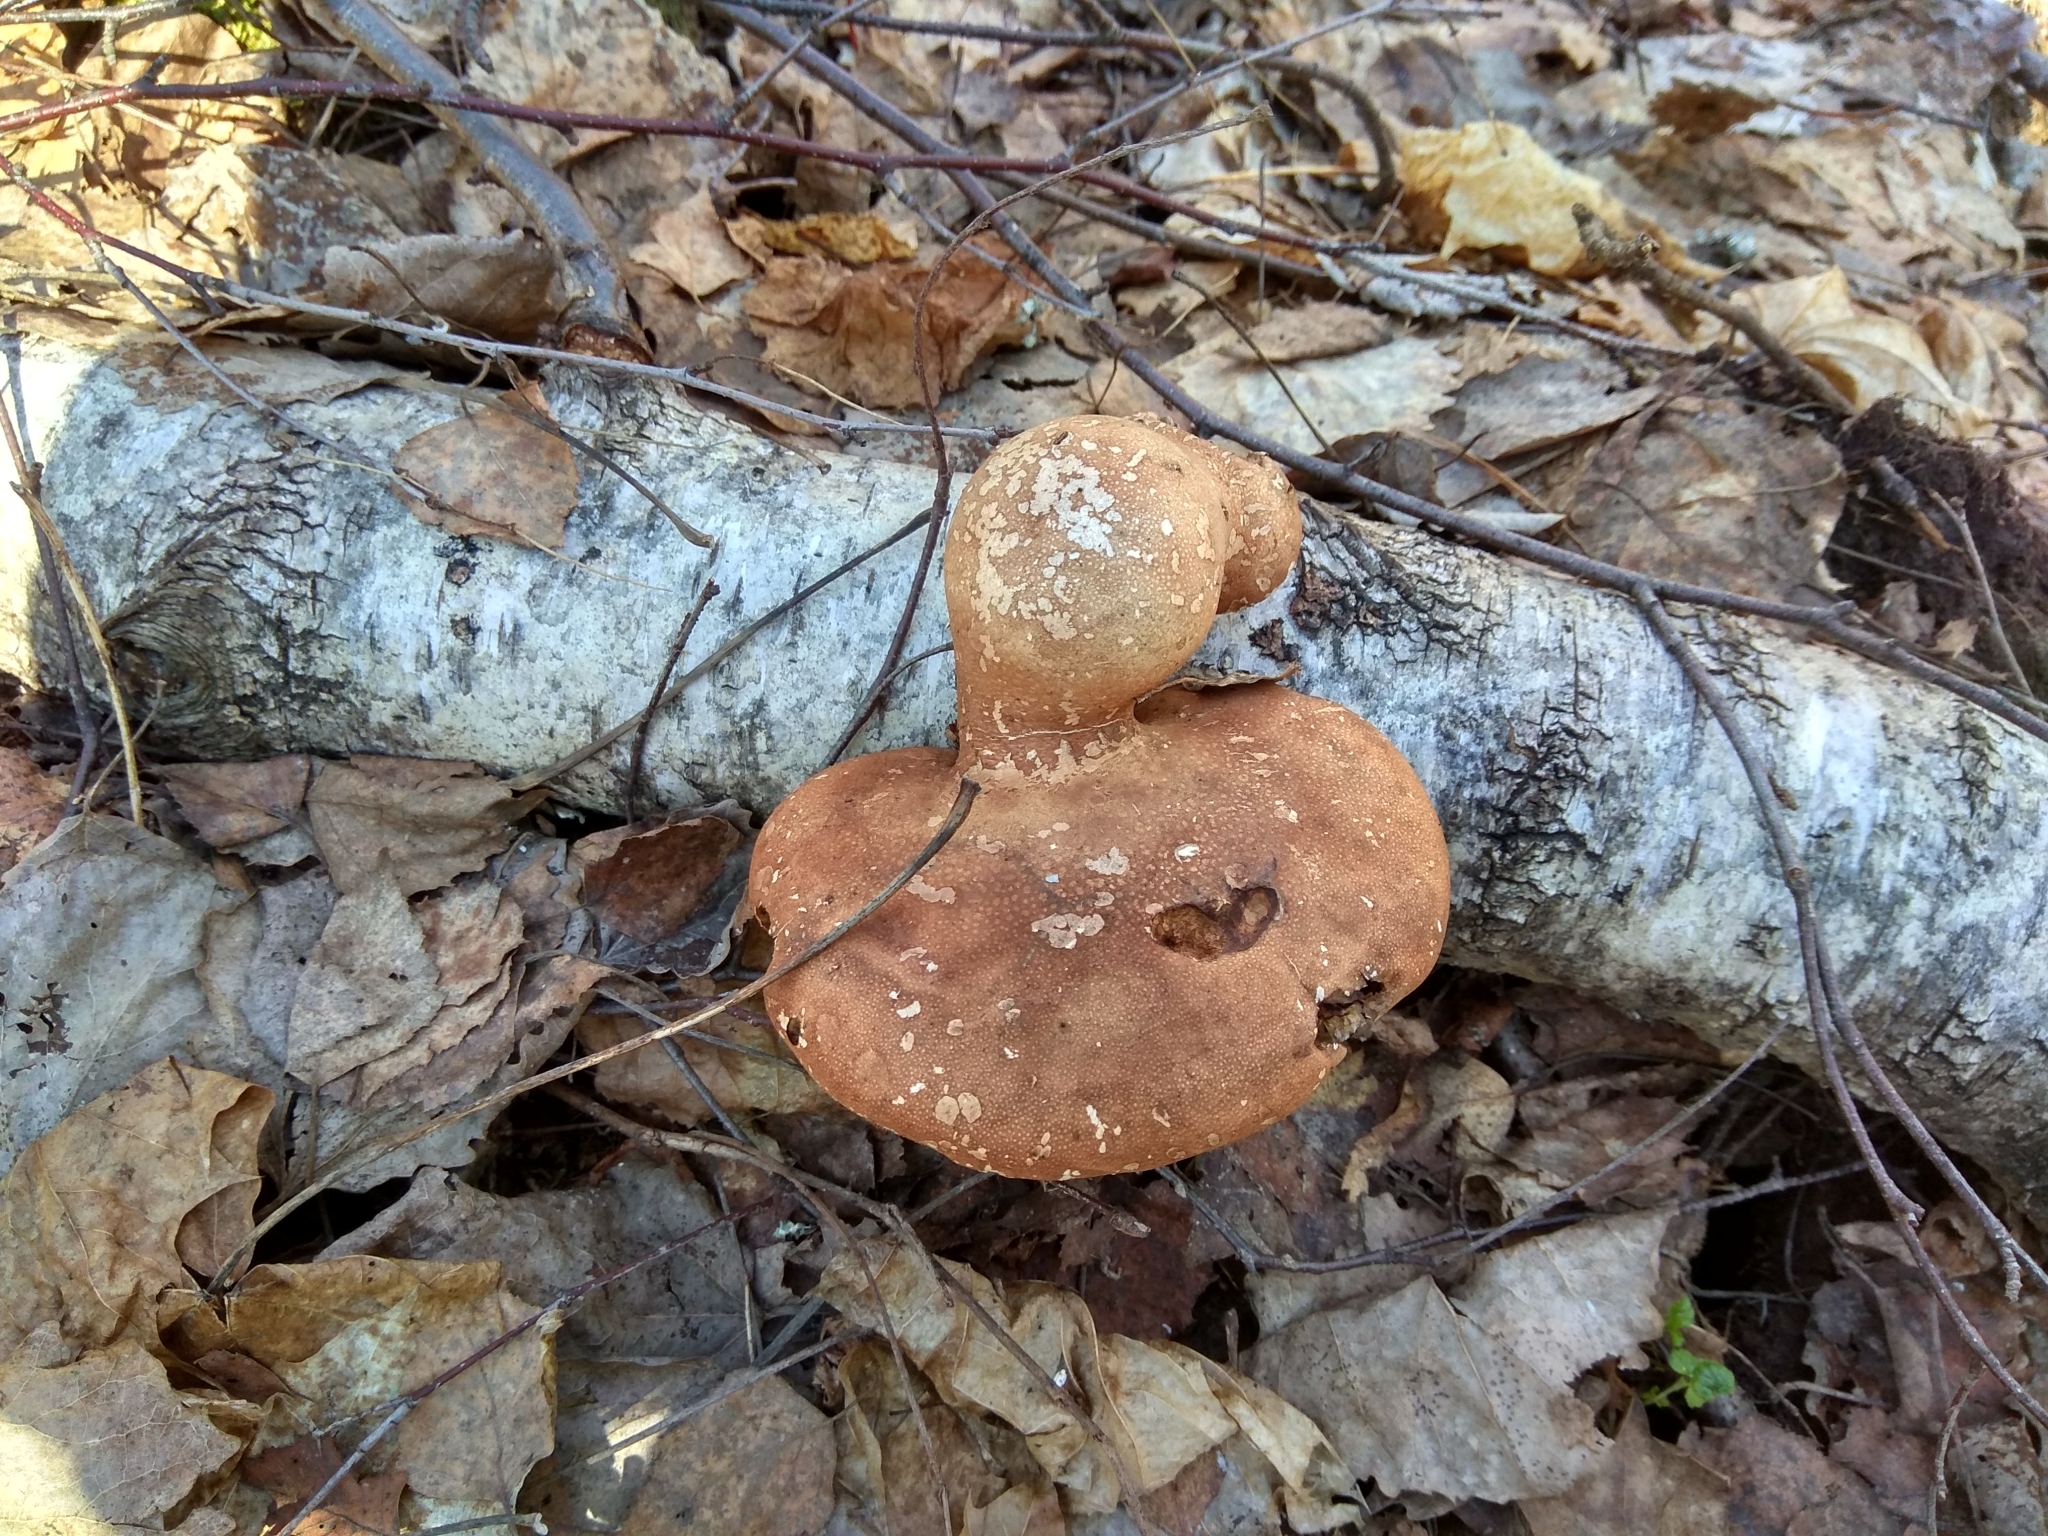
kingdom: Fungi
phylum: Basidiomycota
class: Agaricomycetes
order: Polyporales
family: Fomitopsidaceae
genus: Fomitopsis
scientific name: Fomitopsis betulina
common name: Birch polypore
